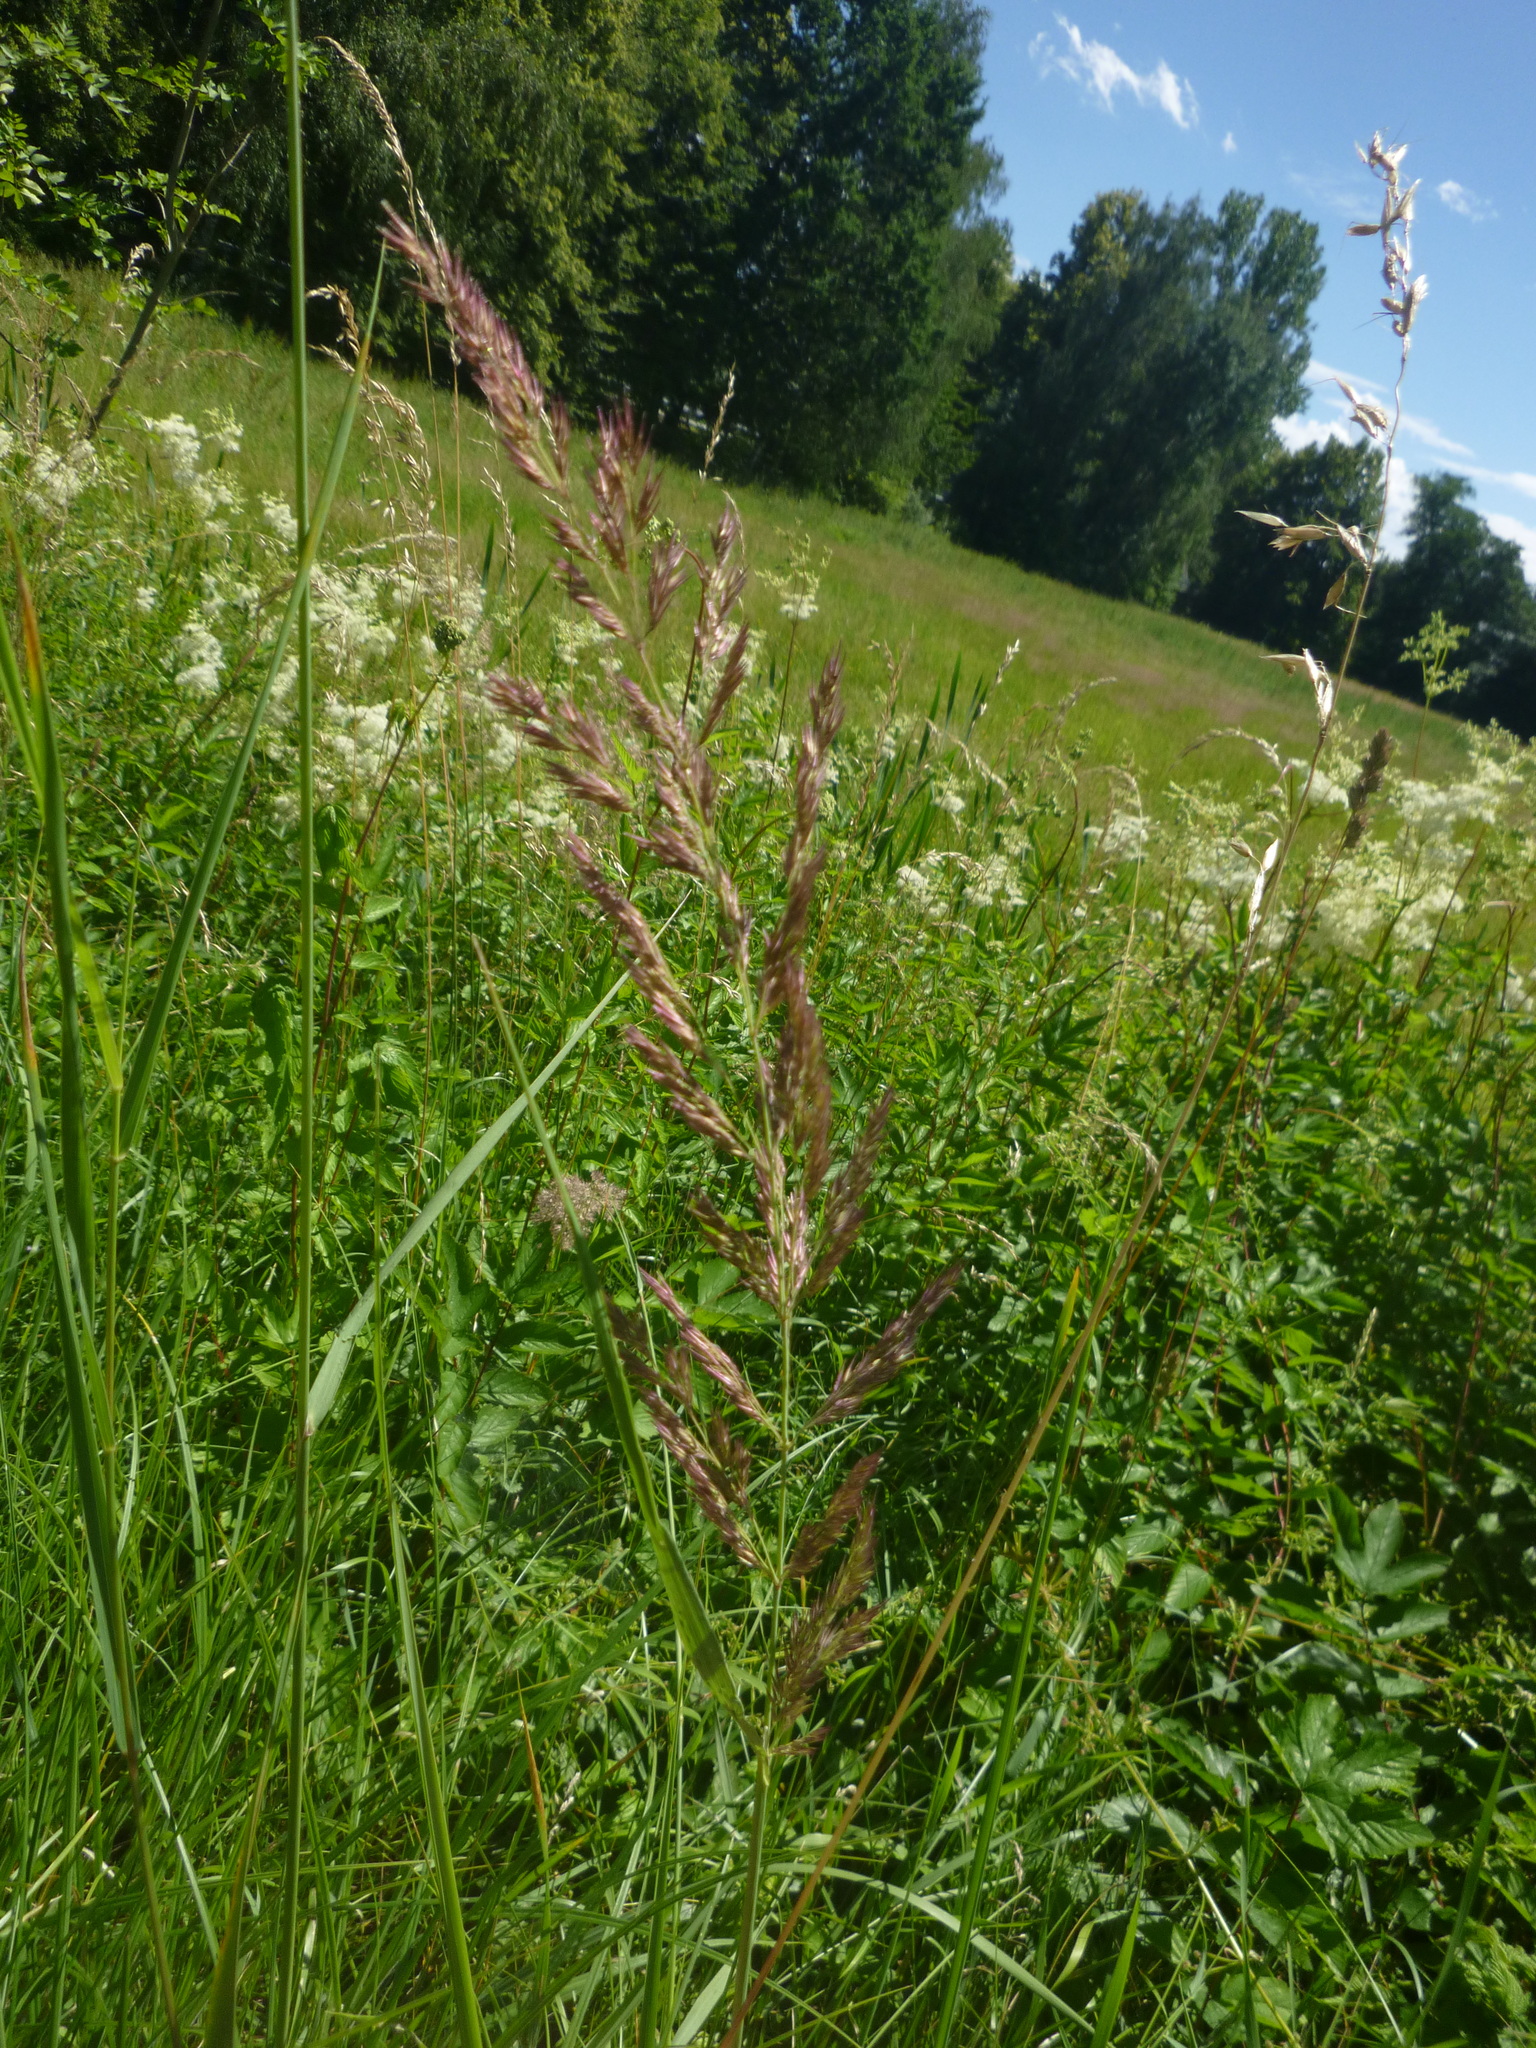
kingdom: Plantae
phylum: Tracheophyta
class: Liliopsida
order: Poales
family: Poaceae
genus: Calamagrostis
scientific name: Calamagrostis epigejos
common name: Wood small-reed
